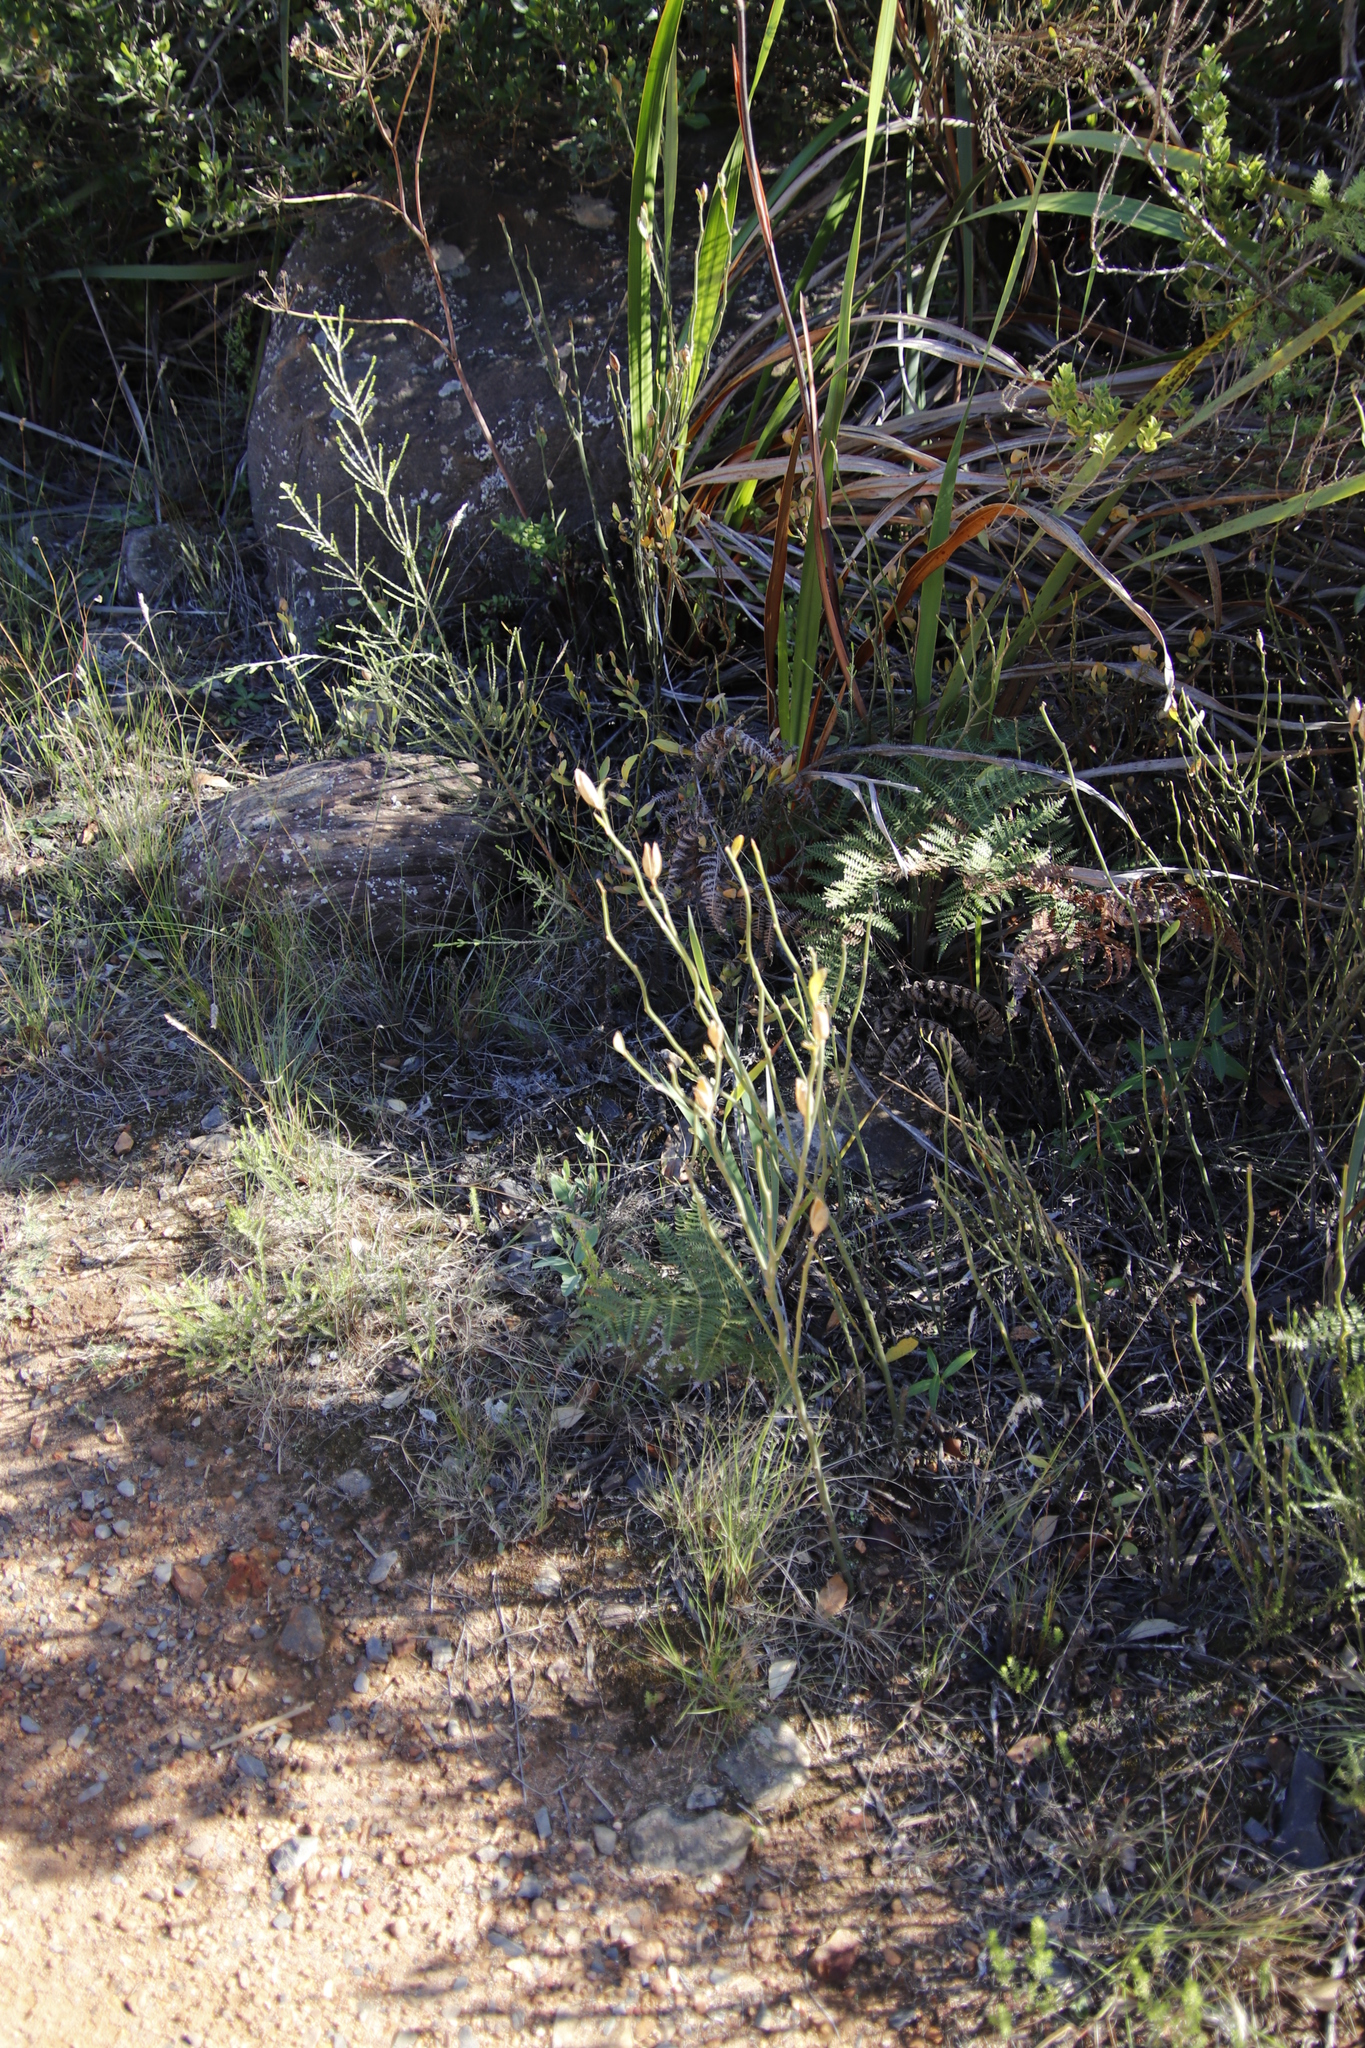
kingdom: Plantae
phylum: Tracheophyta
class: Magnoliopsida
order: Solanales
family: Montiniaceae
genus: Montinia
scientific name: Montinia caryophyllacea
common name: Wild clove-bush
